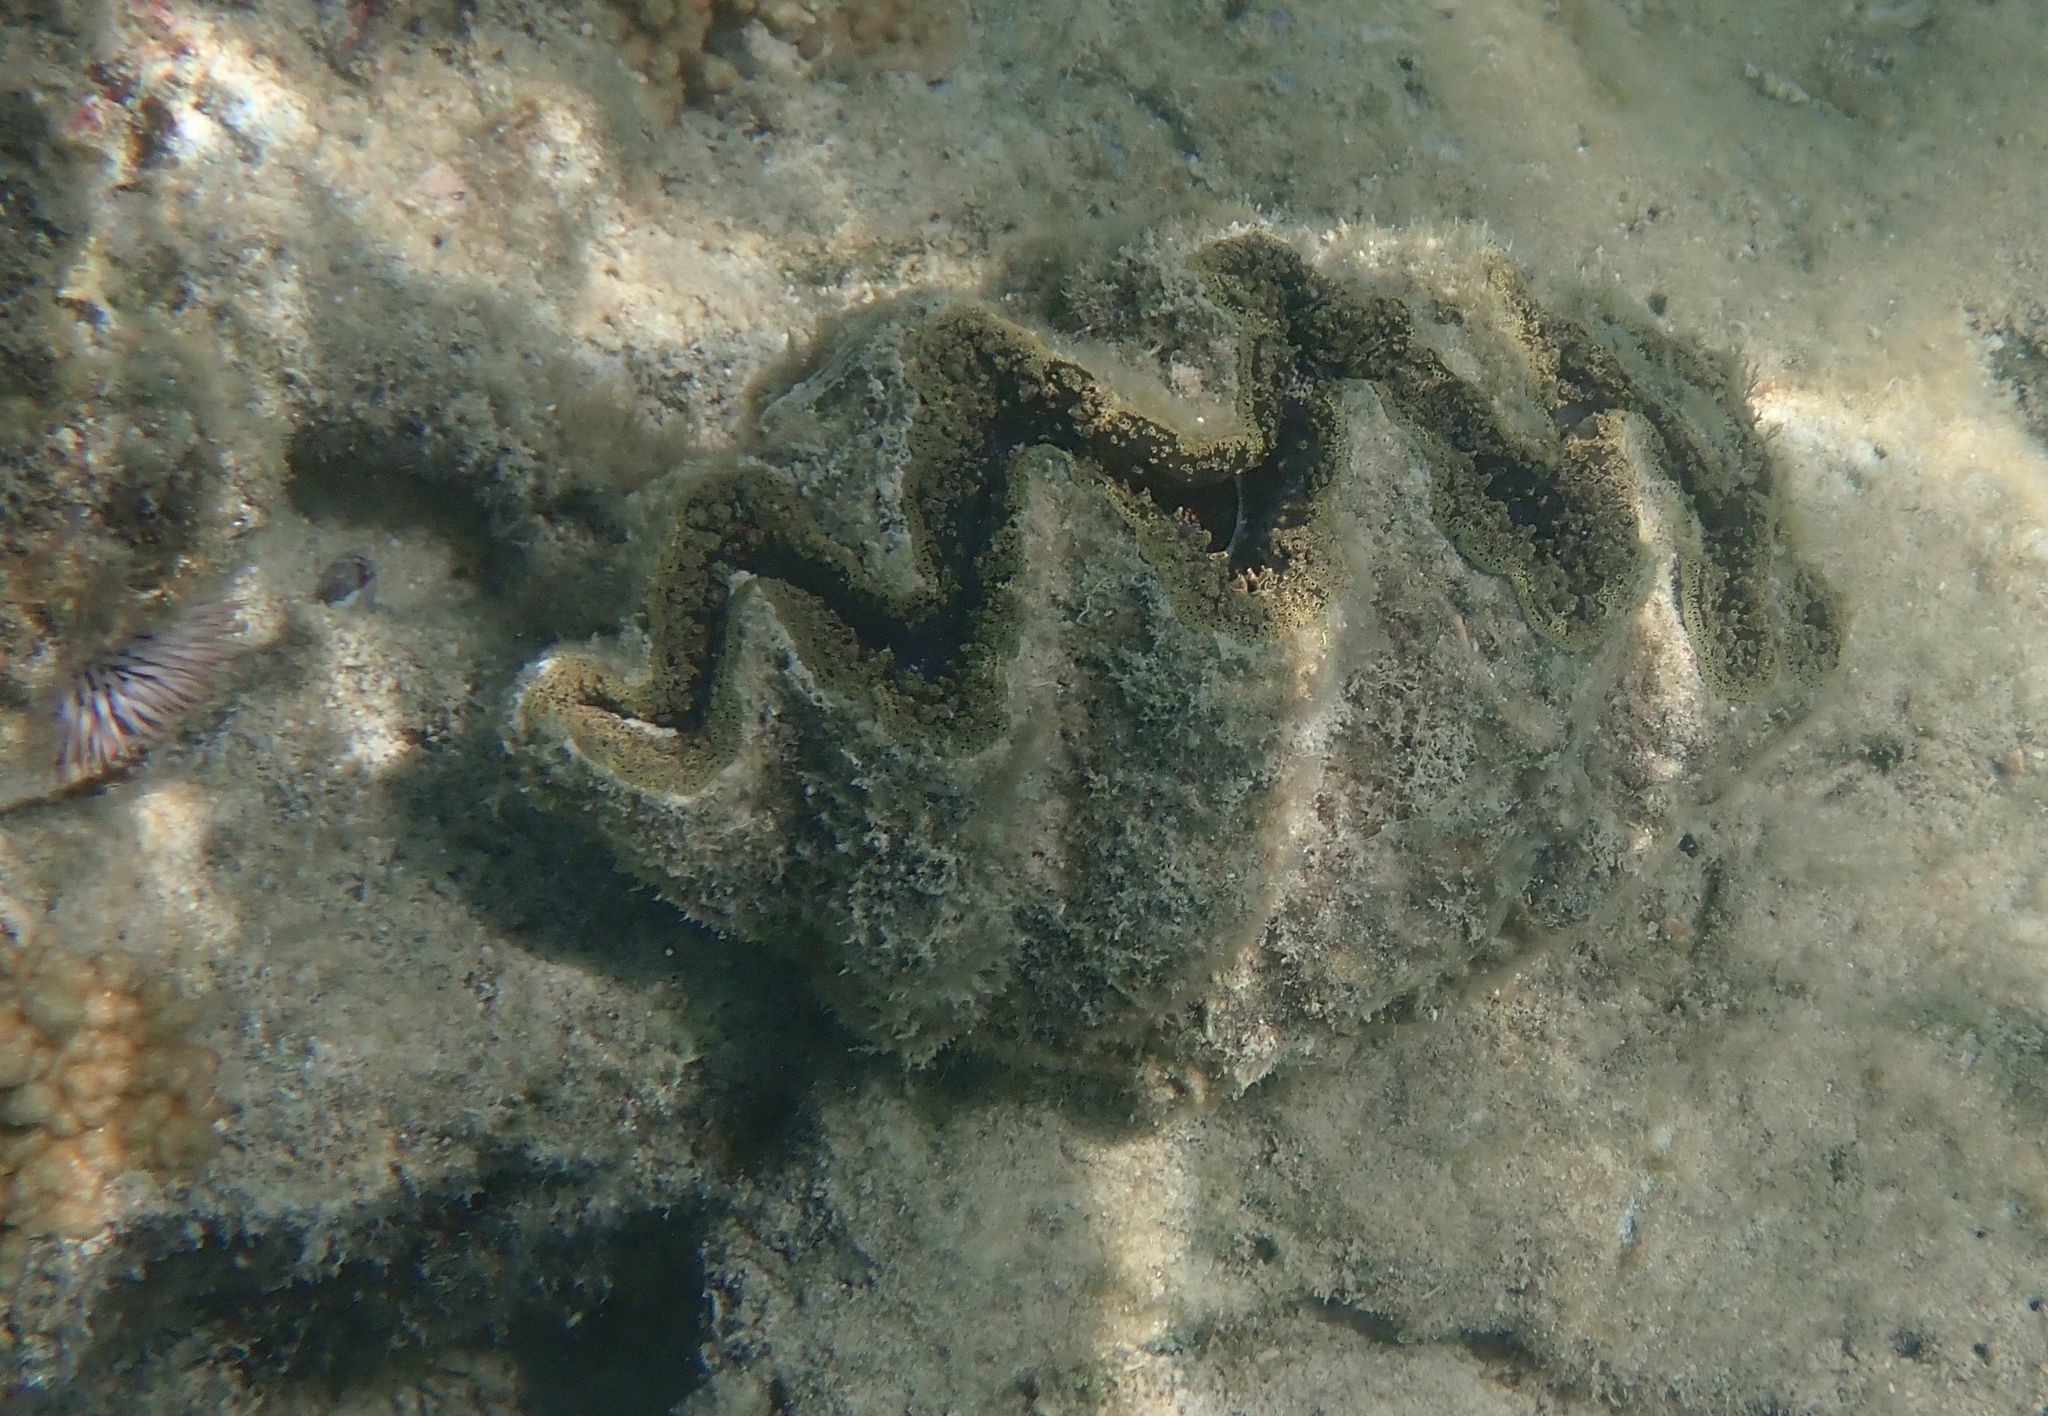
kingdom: Animalia
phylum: Mollusca
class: Bivalvia
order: Cardiida
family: Cardiidae
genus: Tridacna
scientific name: Tridacna noae
